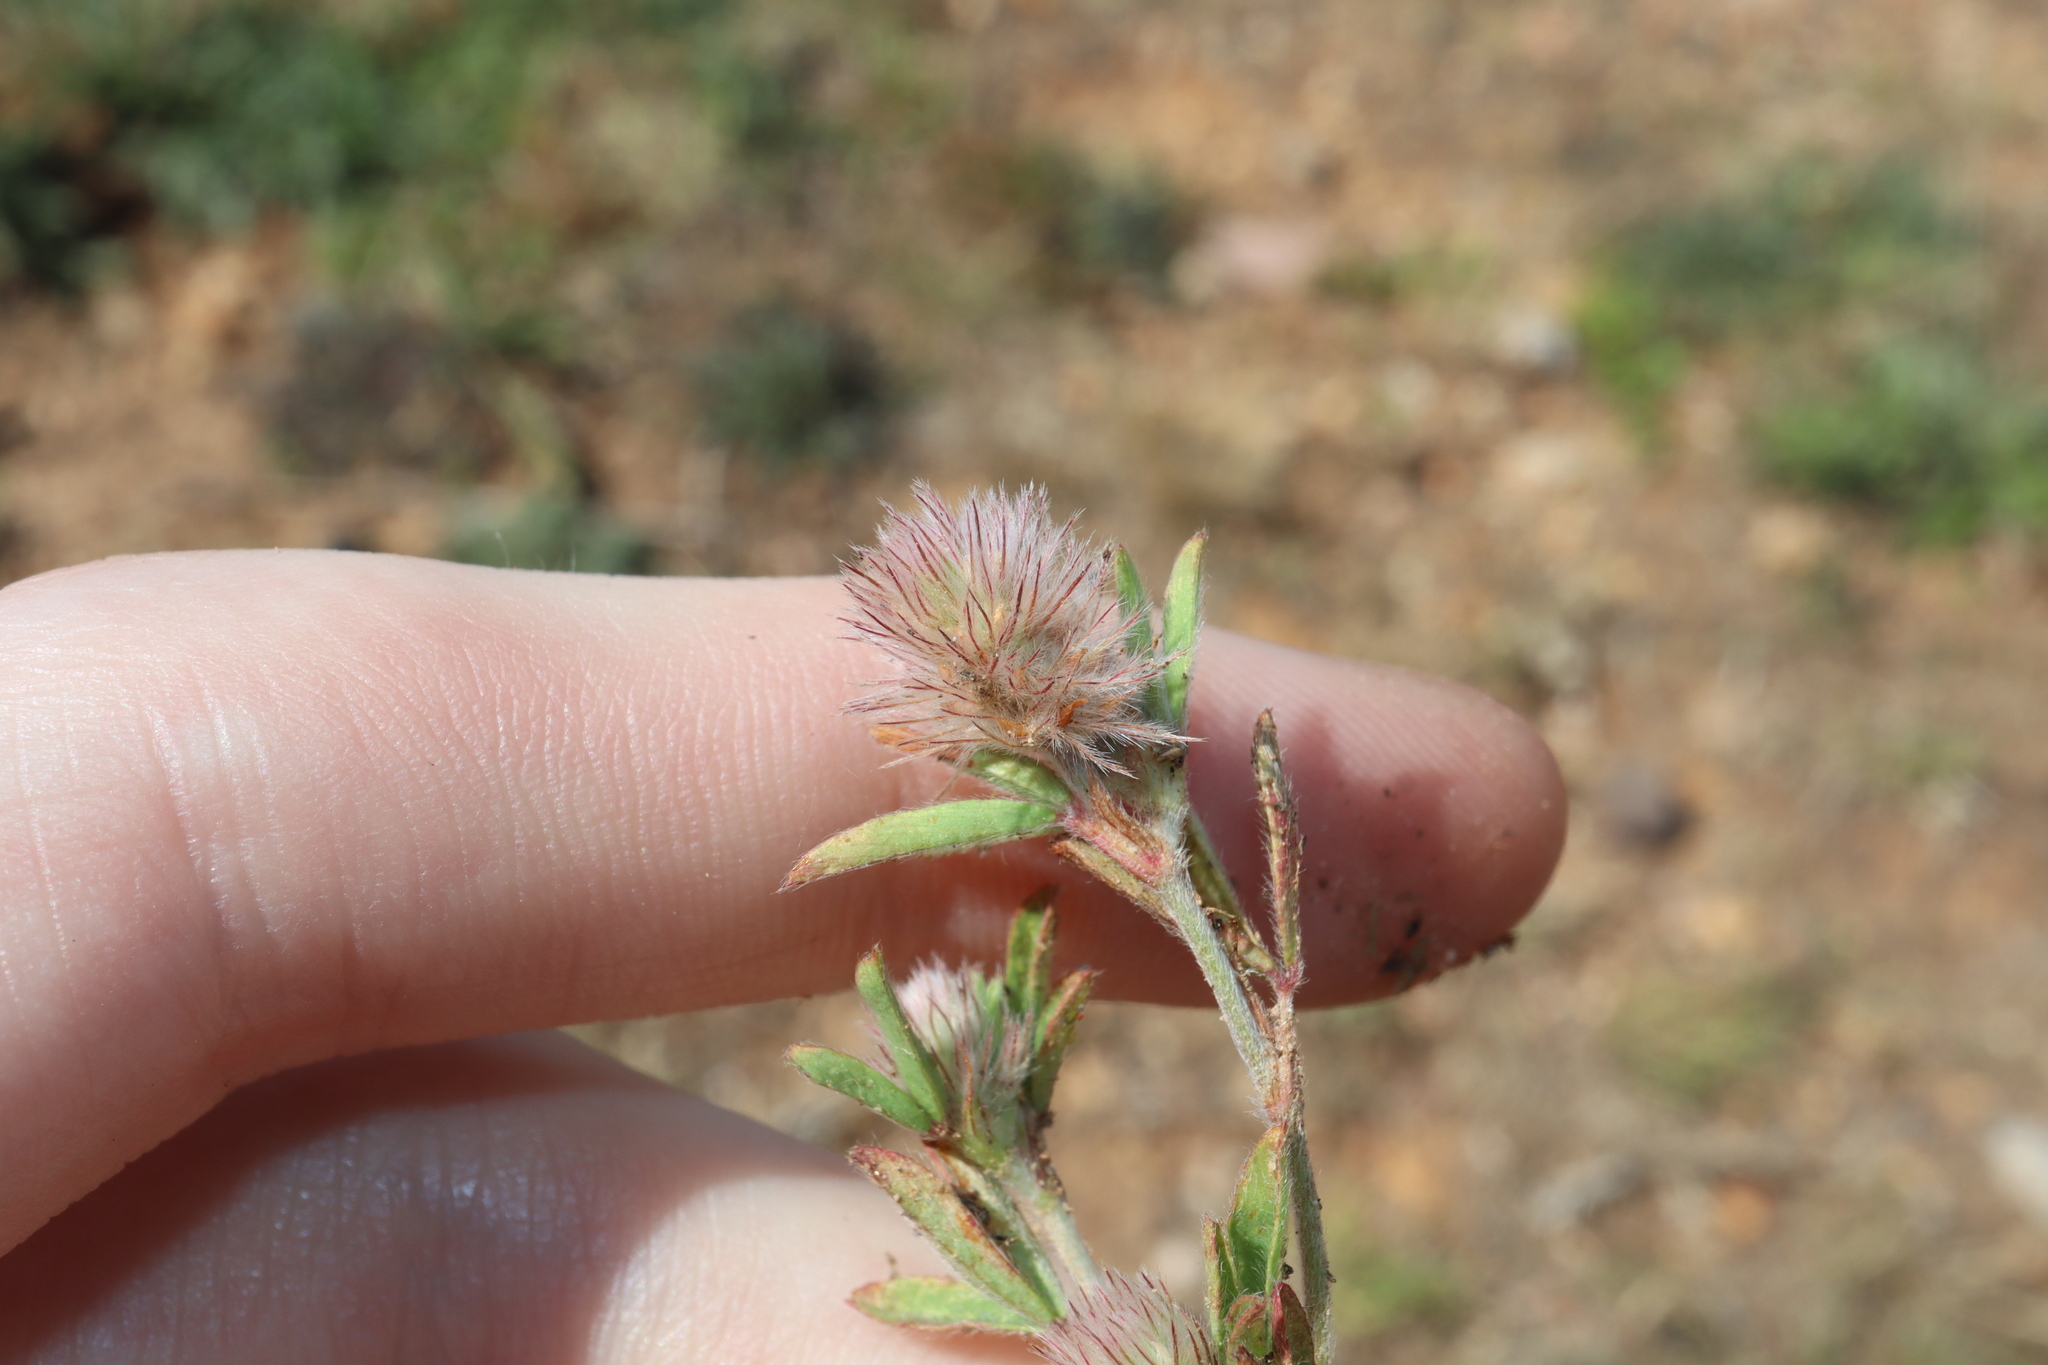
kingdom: Plantae
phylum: Tracheophyta
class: Magnoliopsida
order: Fabales
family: Fabaceae
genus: Trifolium
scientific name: Trifolium arvense
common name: Hare's-foot clover
